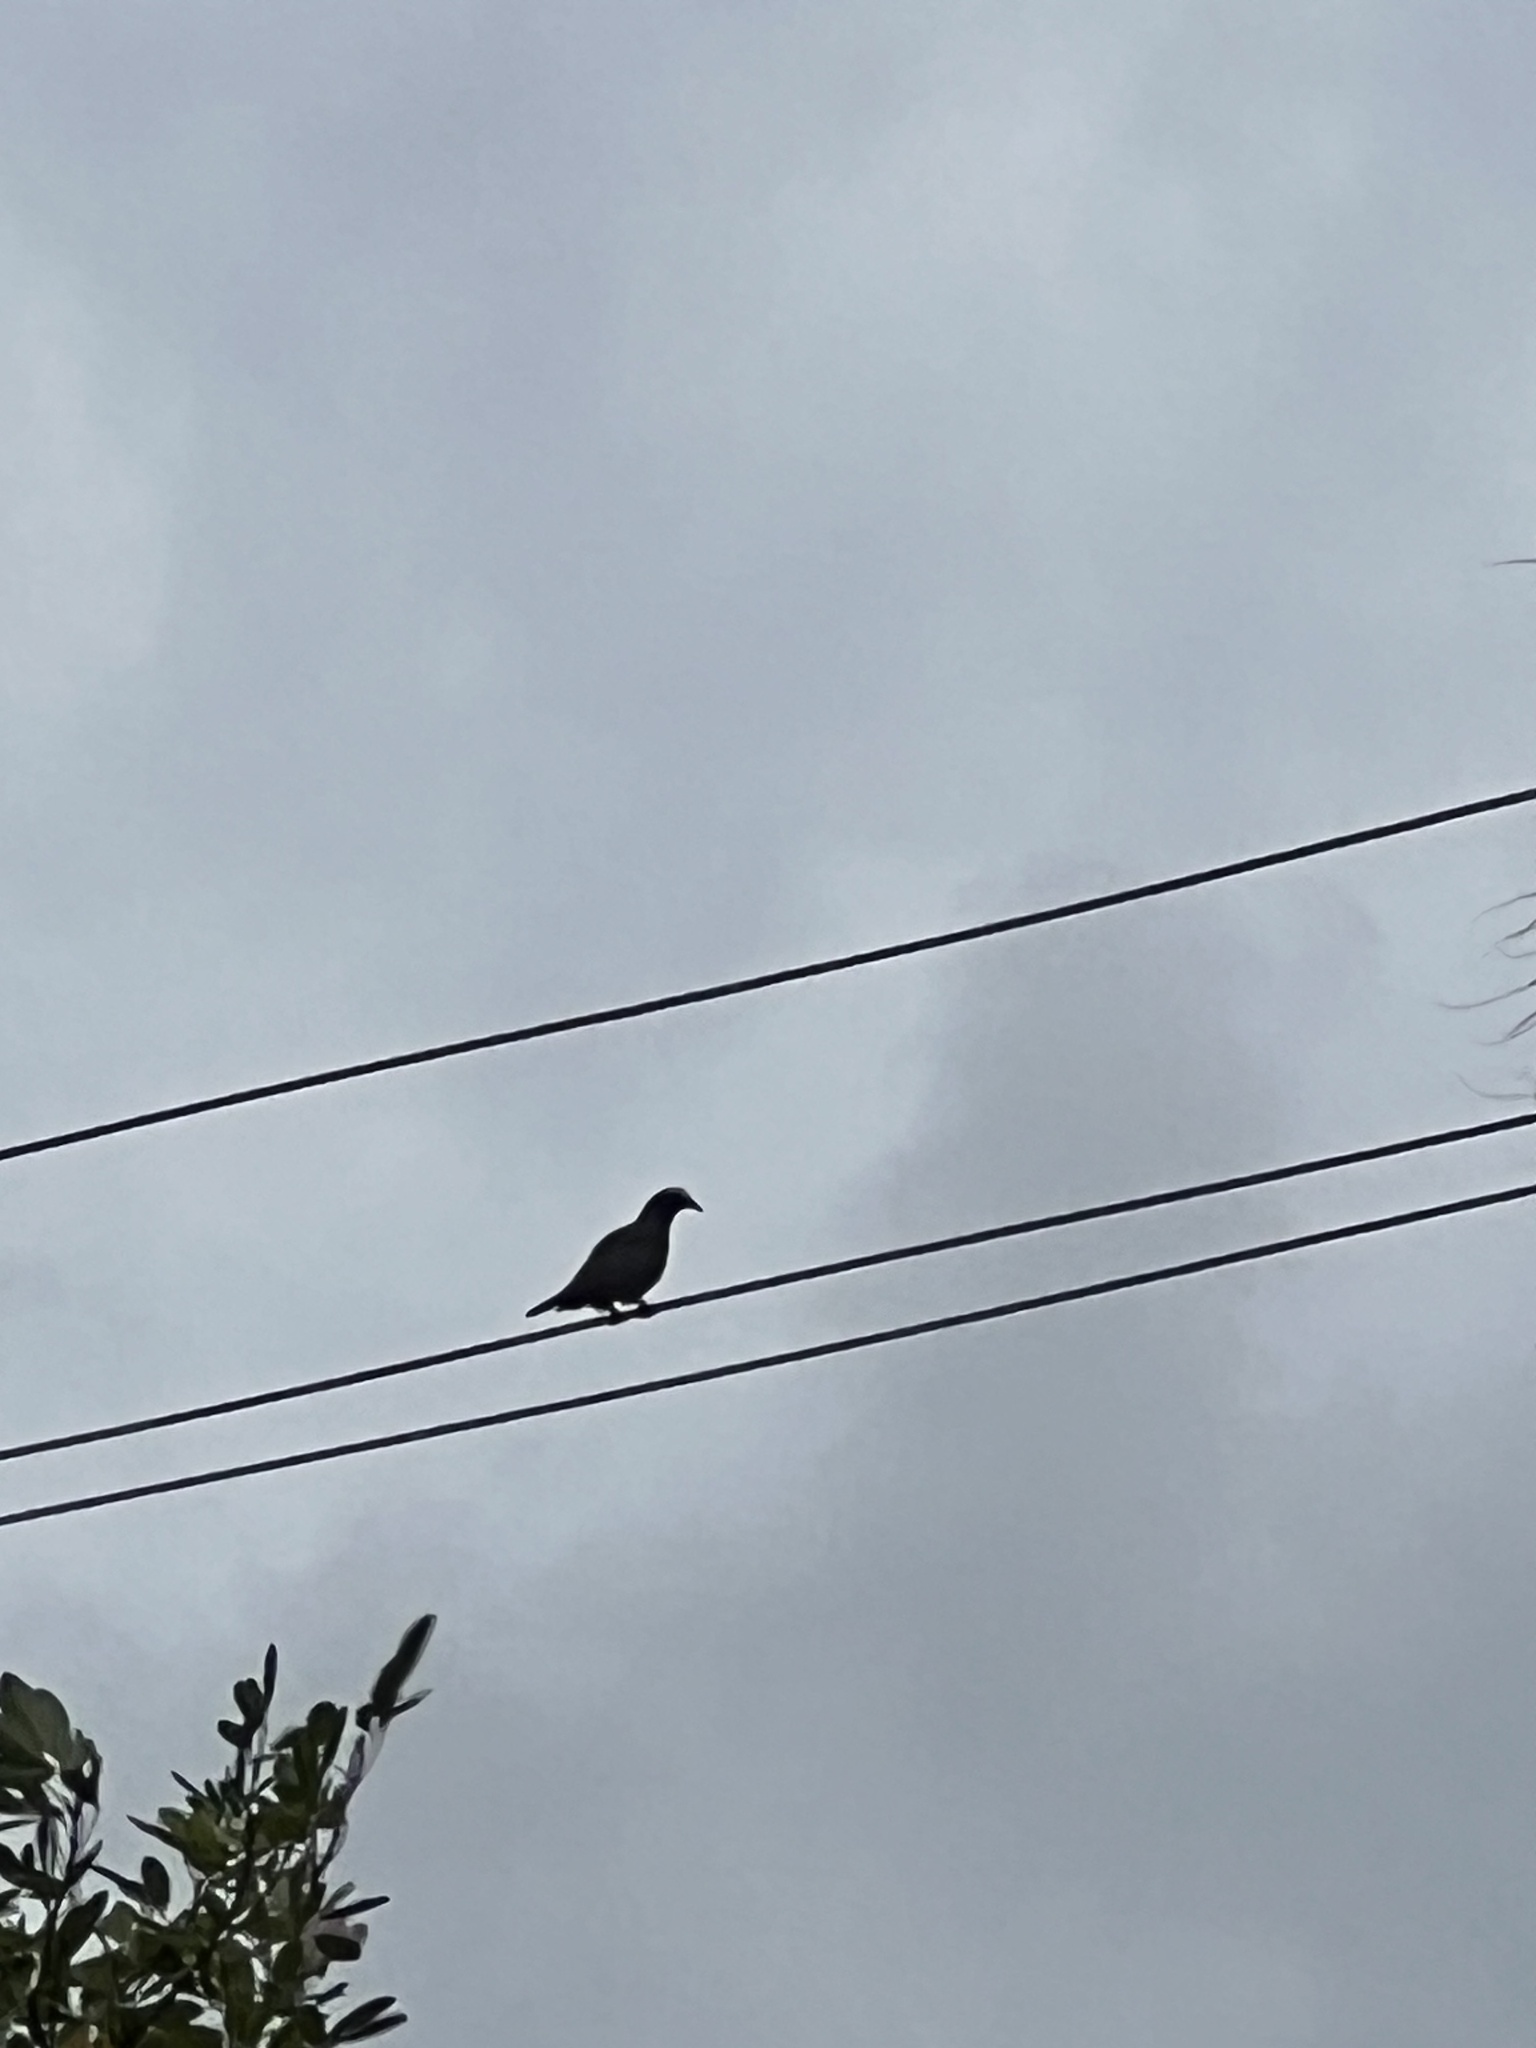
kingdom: Animalia
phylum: Chordata
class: Aves
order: Columbiformes
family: Columbidae
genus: Patagioenas
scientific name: Patagioenas leucocephala
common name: White-crowned pigeon
